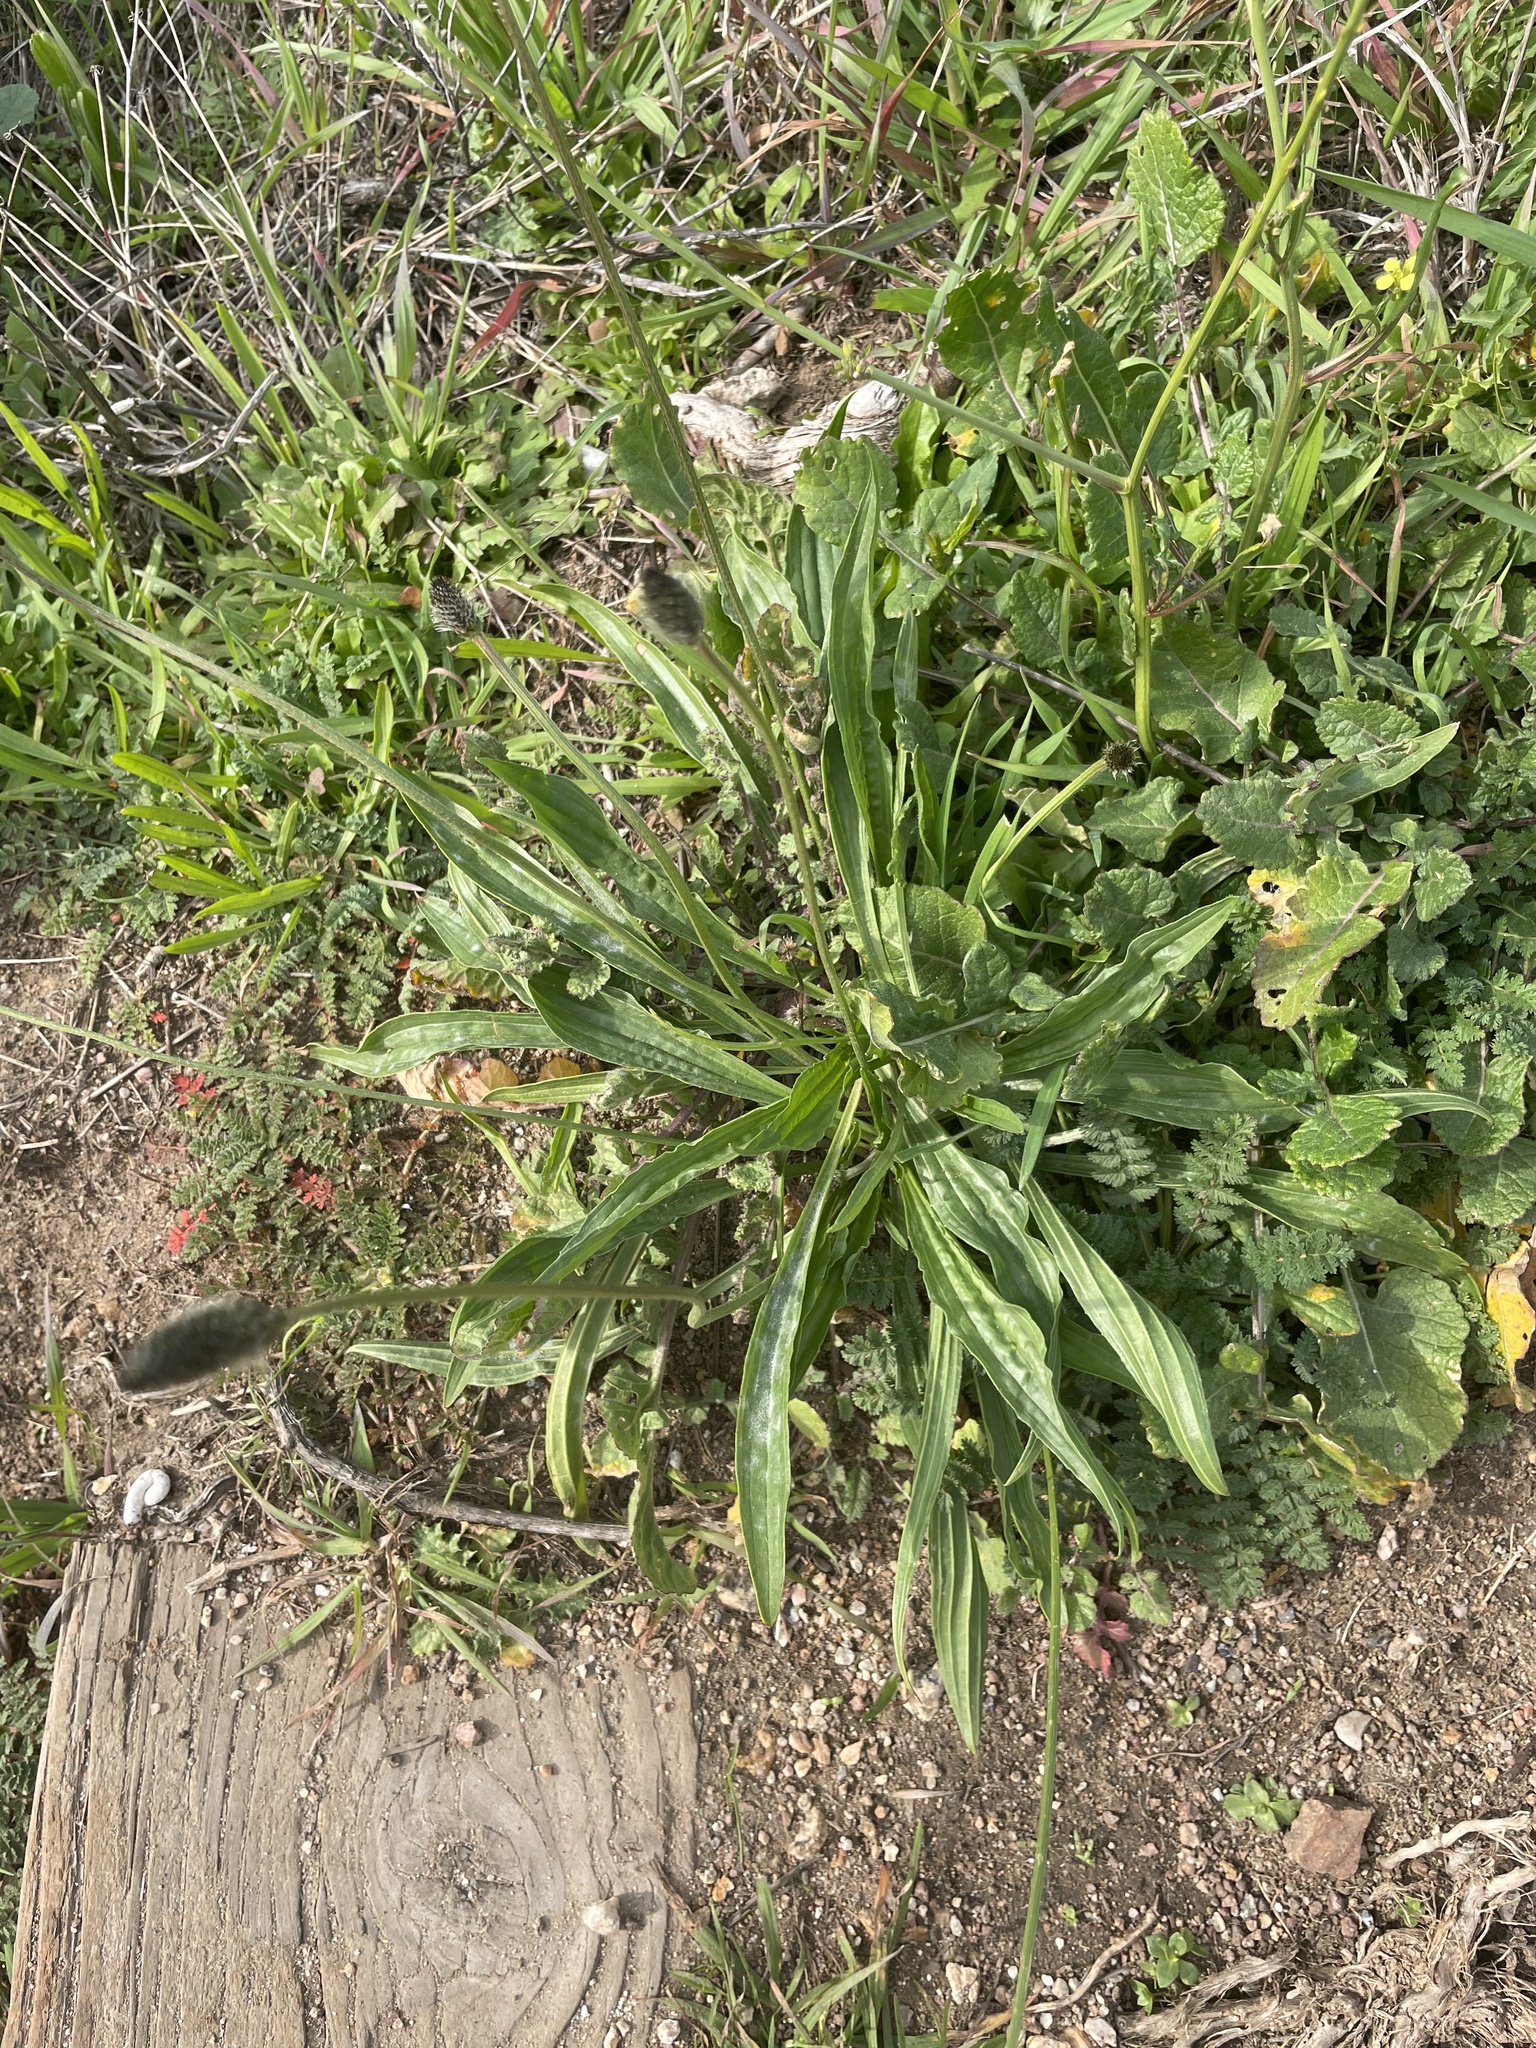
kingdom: Plantae
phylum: Tracheophyta
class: Magnoliopsida
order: Lamiales
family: Plantaginaceae
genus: Plantago
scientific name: Plantago lanceolata
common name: Ribwort plantain
